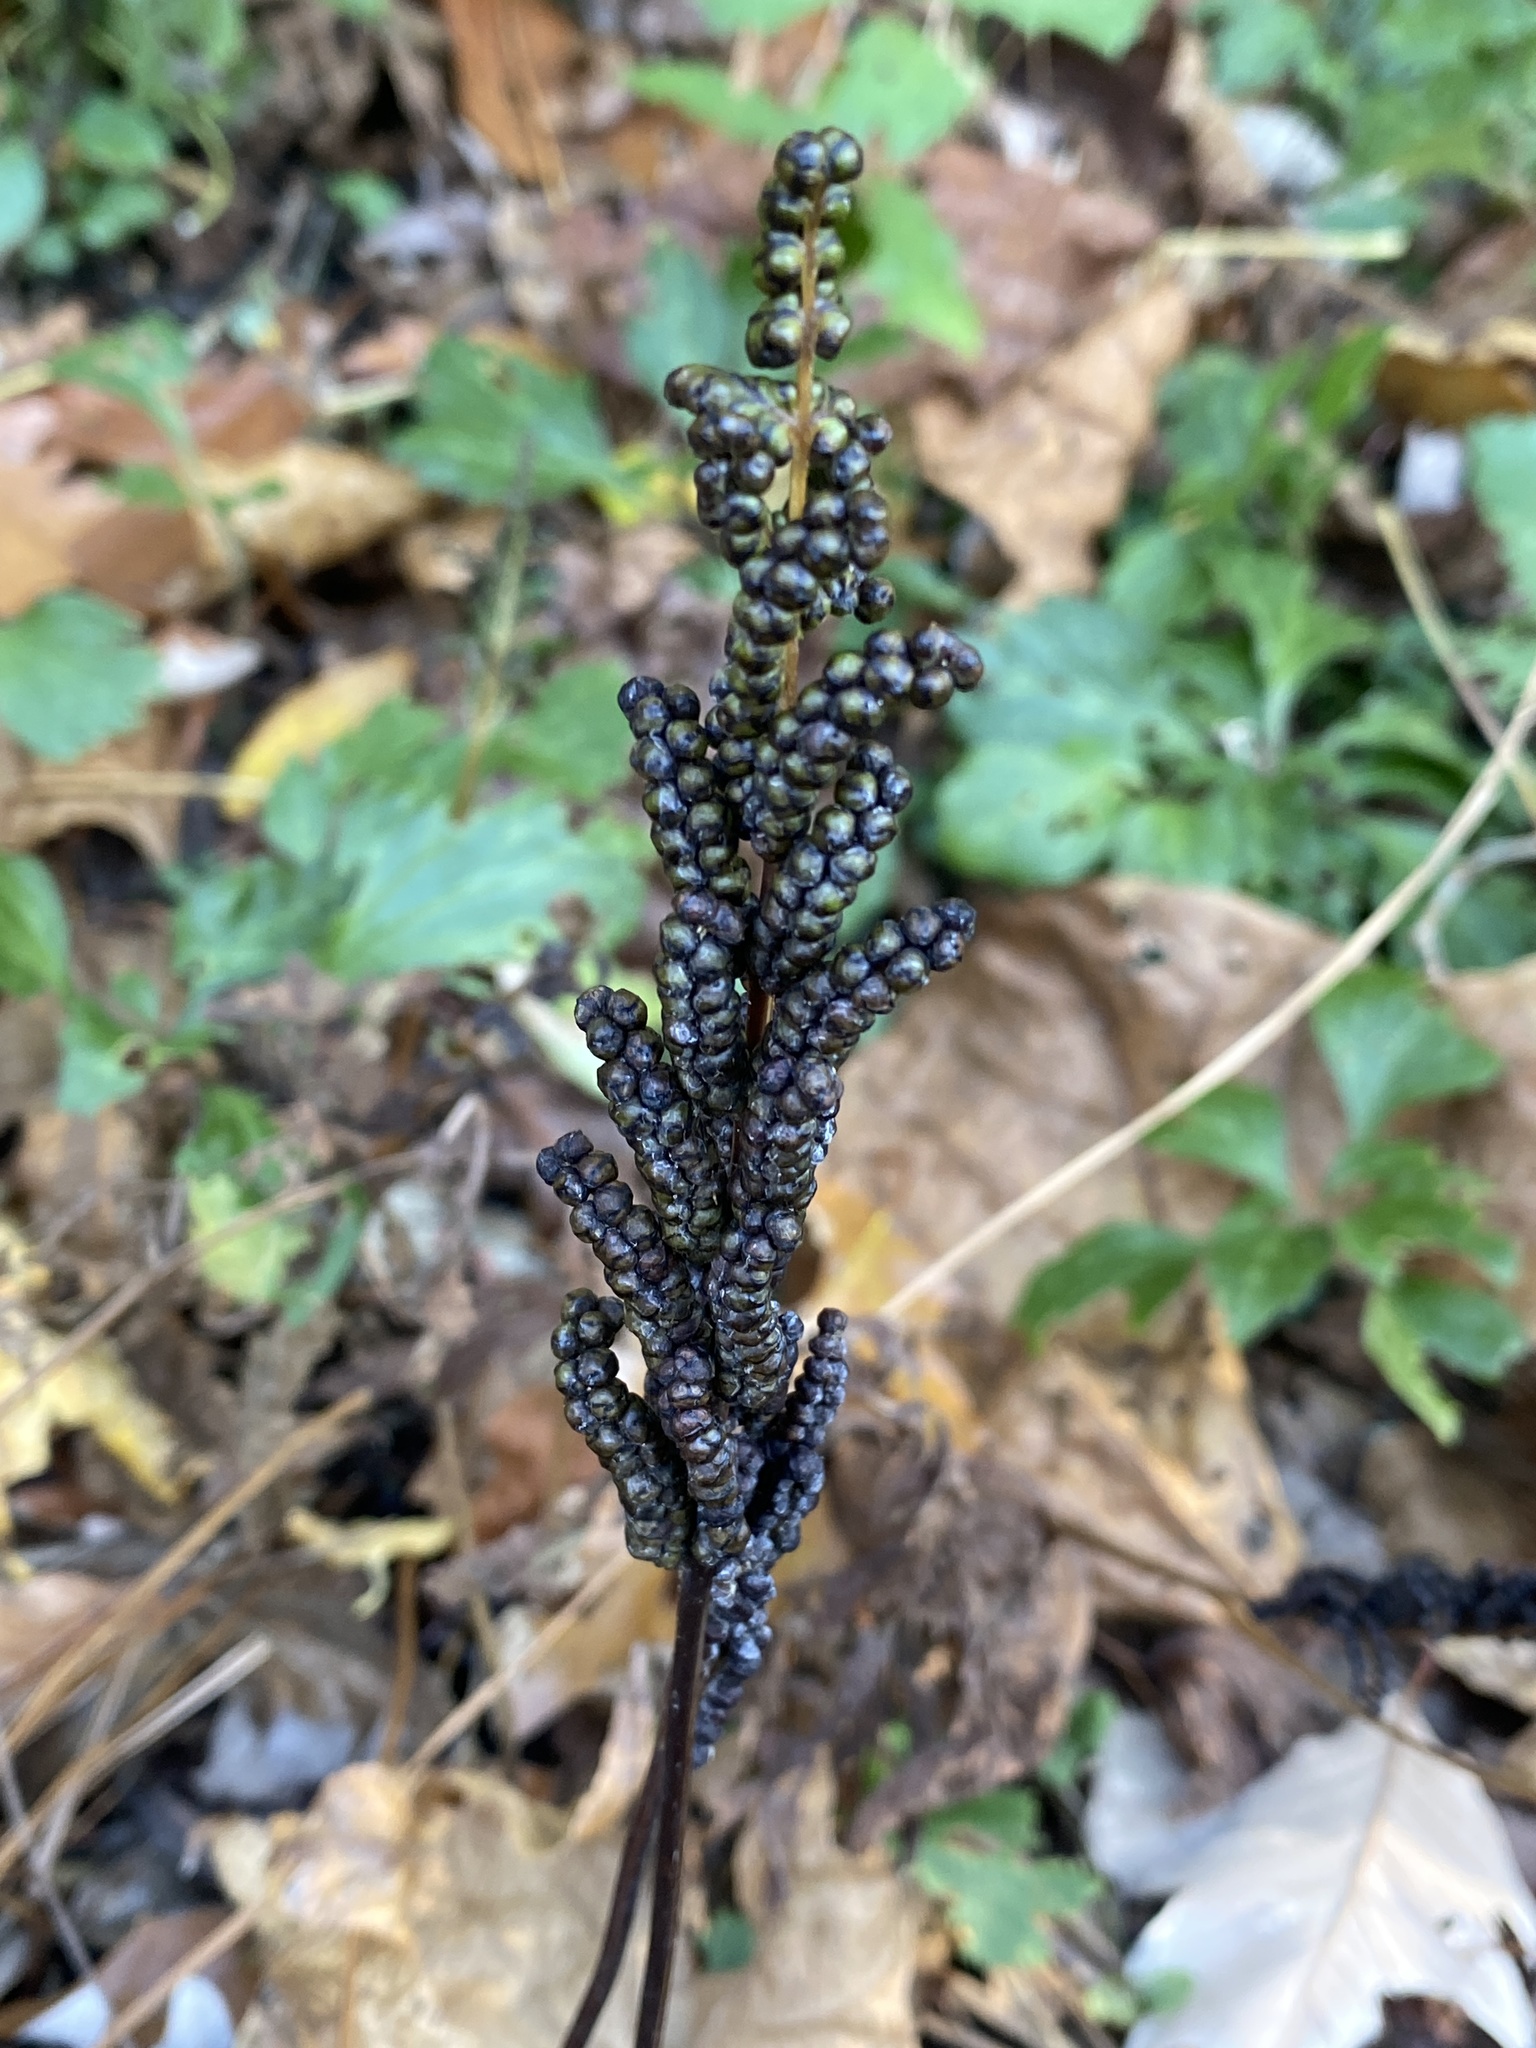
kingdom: Plantae
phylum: Tracheophyta
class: Polypodiopsida
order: Polypodiales
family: Onocleaceae
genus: Onoclea
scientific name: Onoclea sensibilis
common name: Sensitive fern
